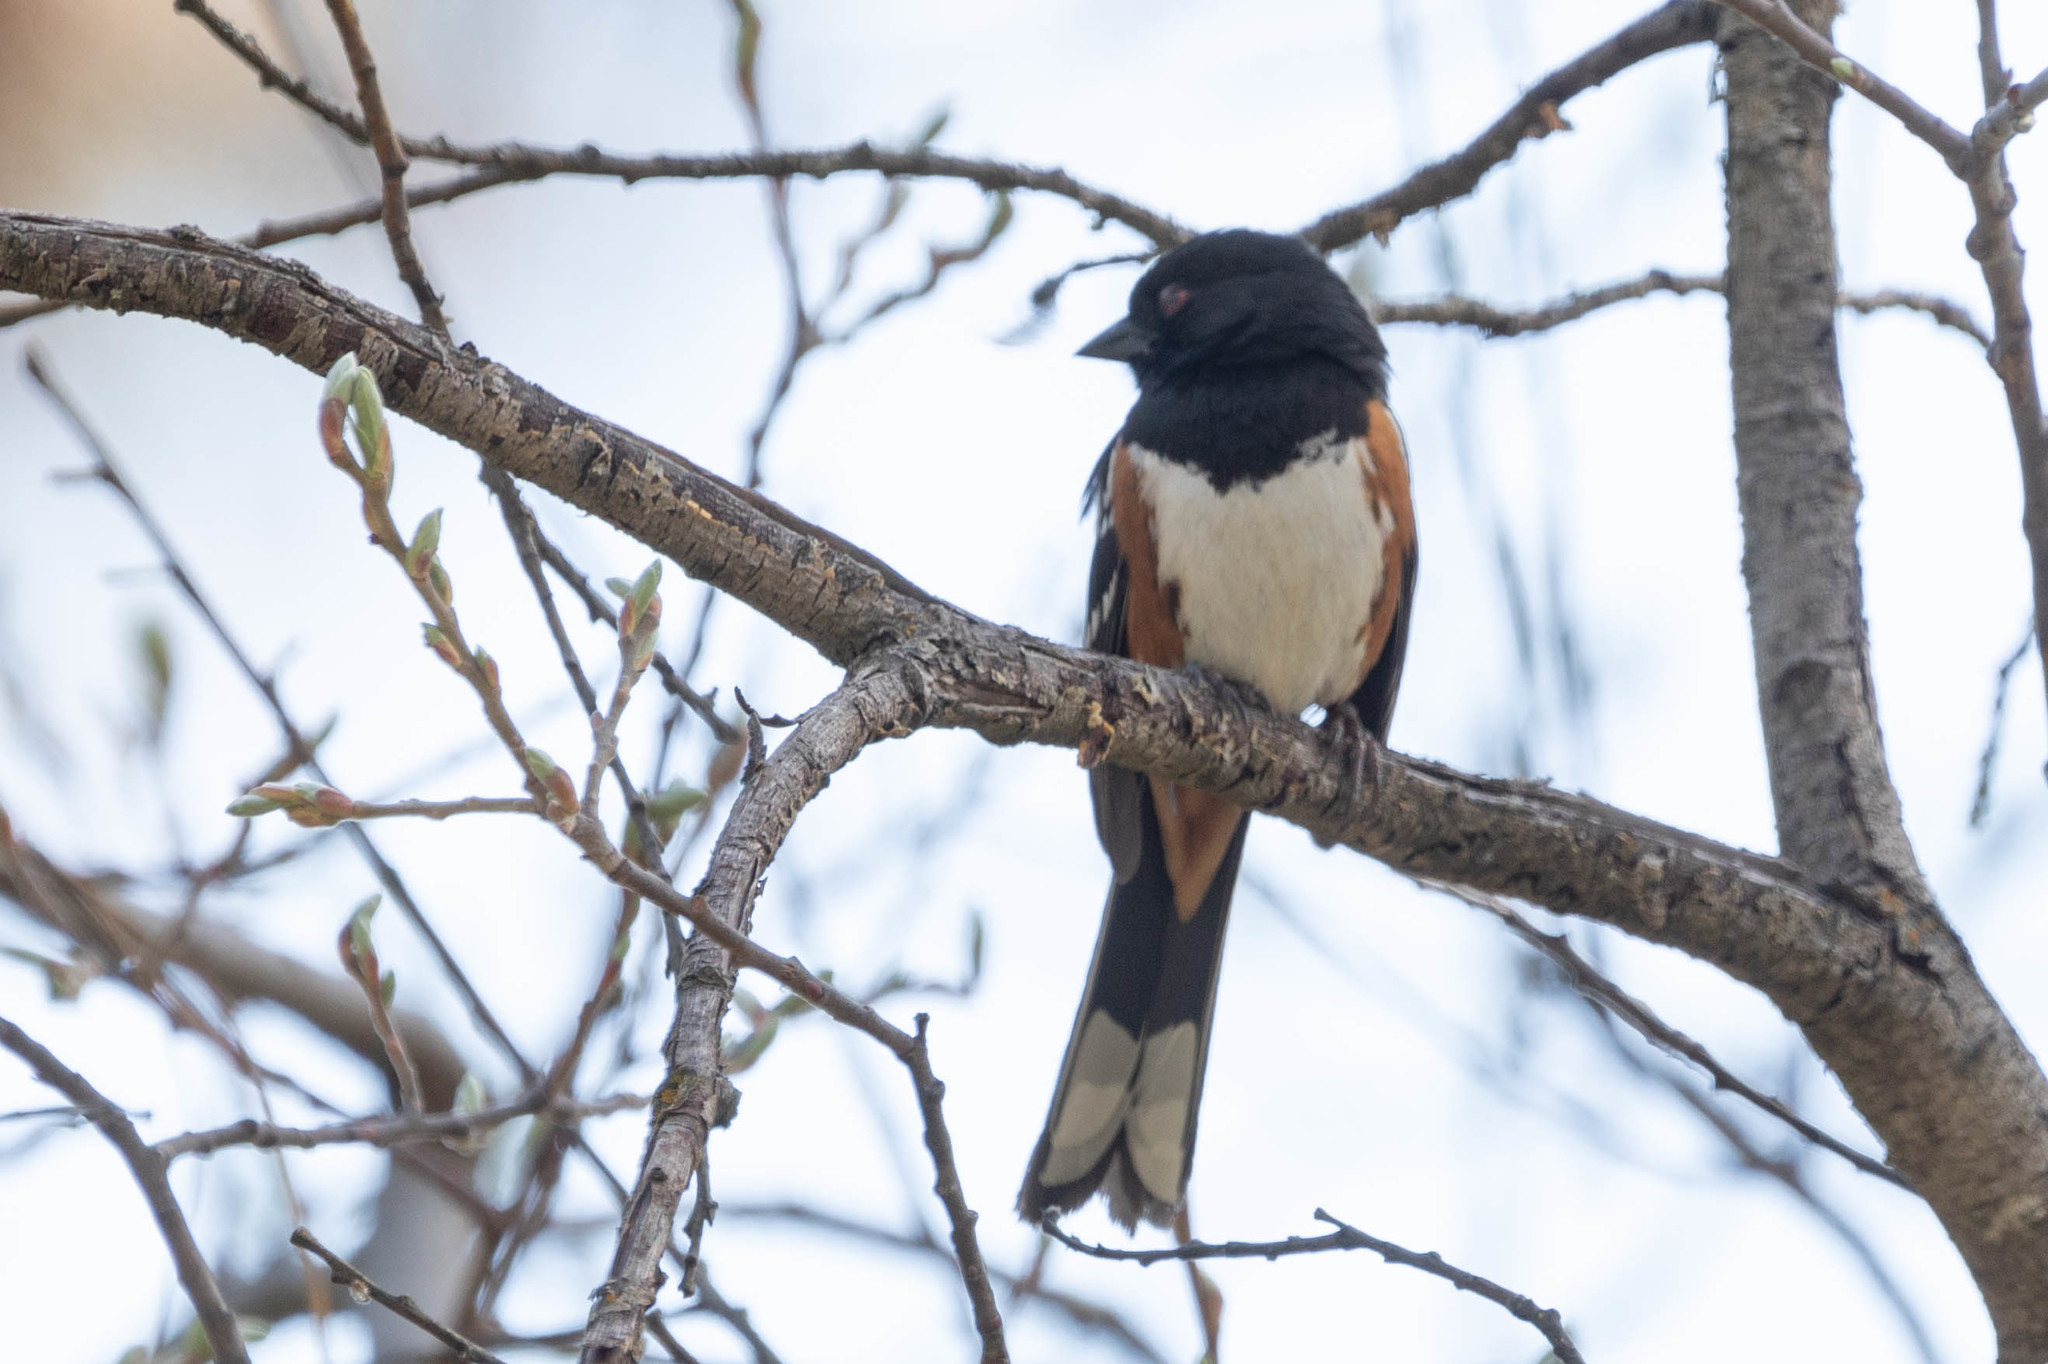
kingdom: Animalia
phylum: Chordata
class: Aves
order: Passeriformes
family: Passerellidae
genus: Pipilo
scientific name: Pipilo maculatus
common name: Spotted towhee
